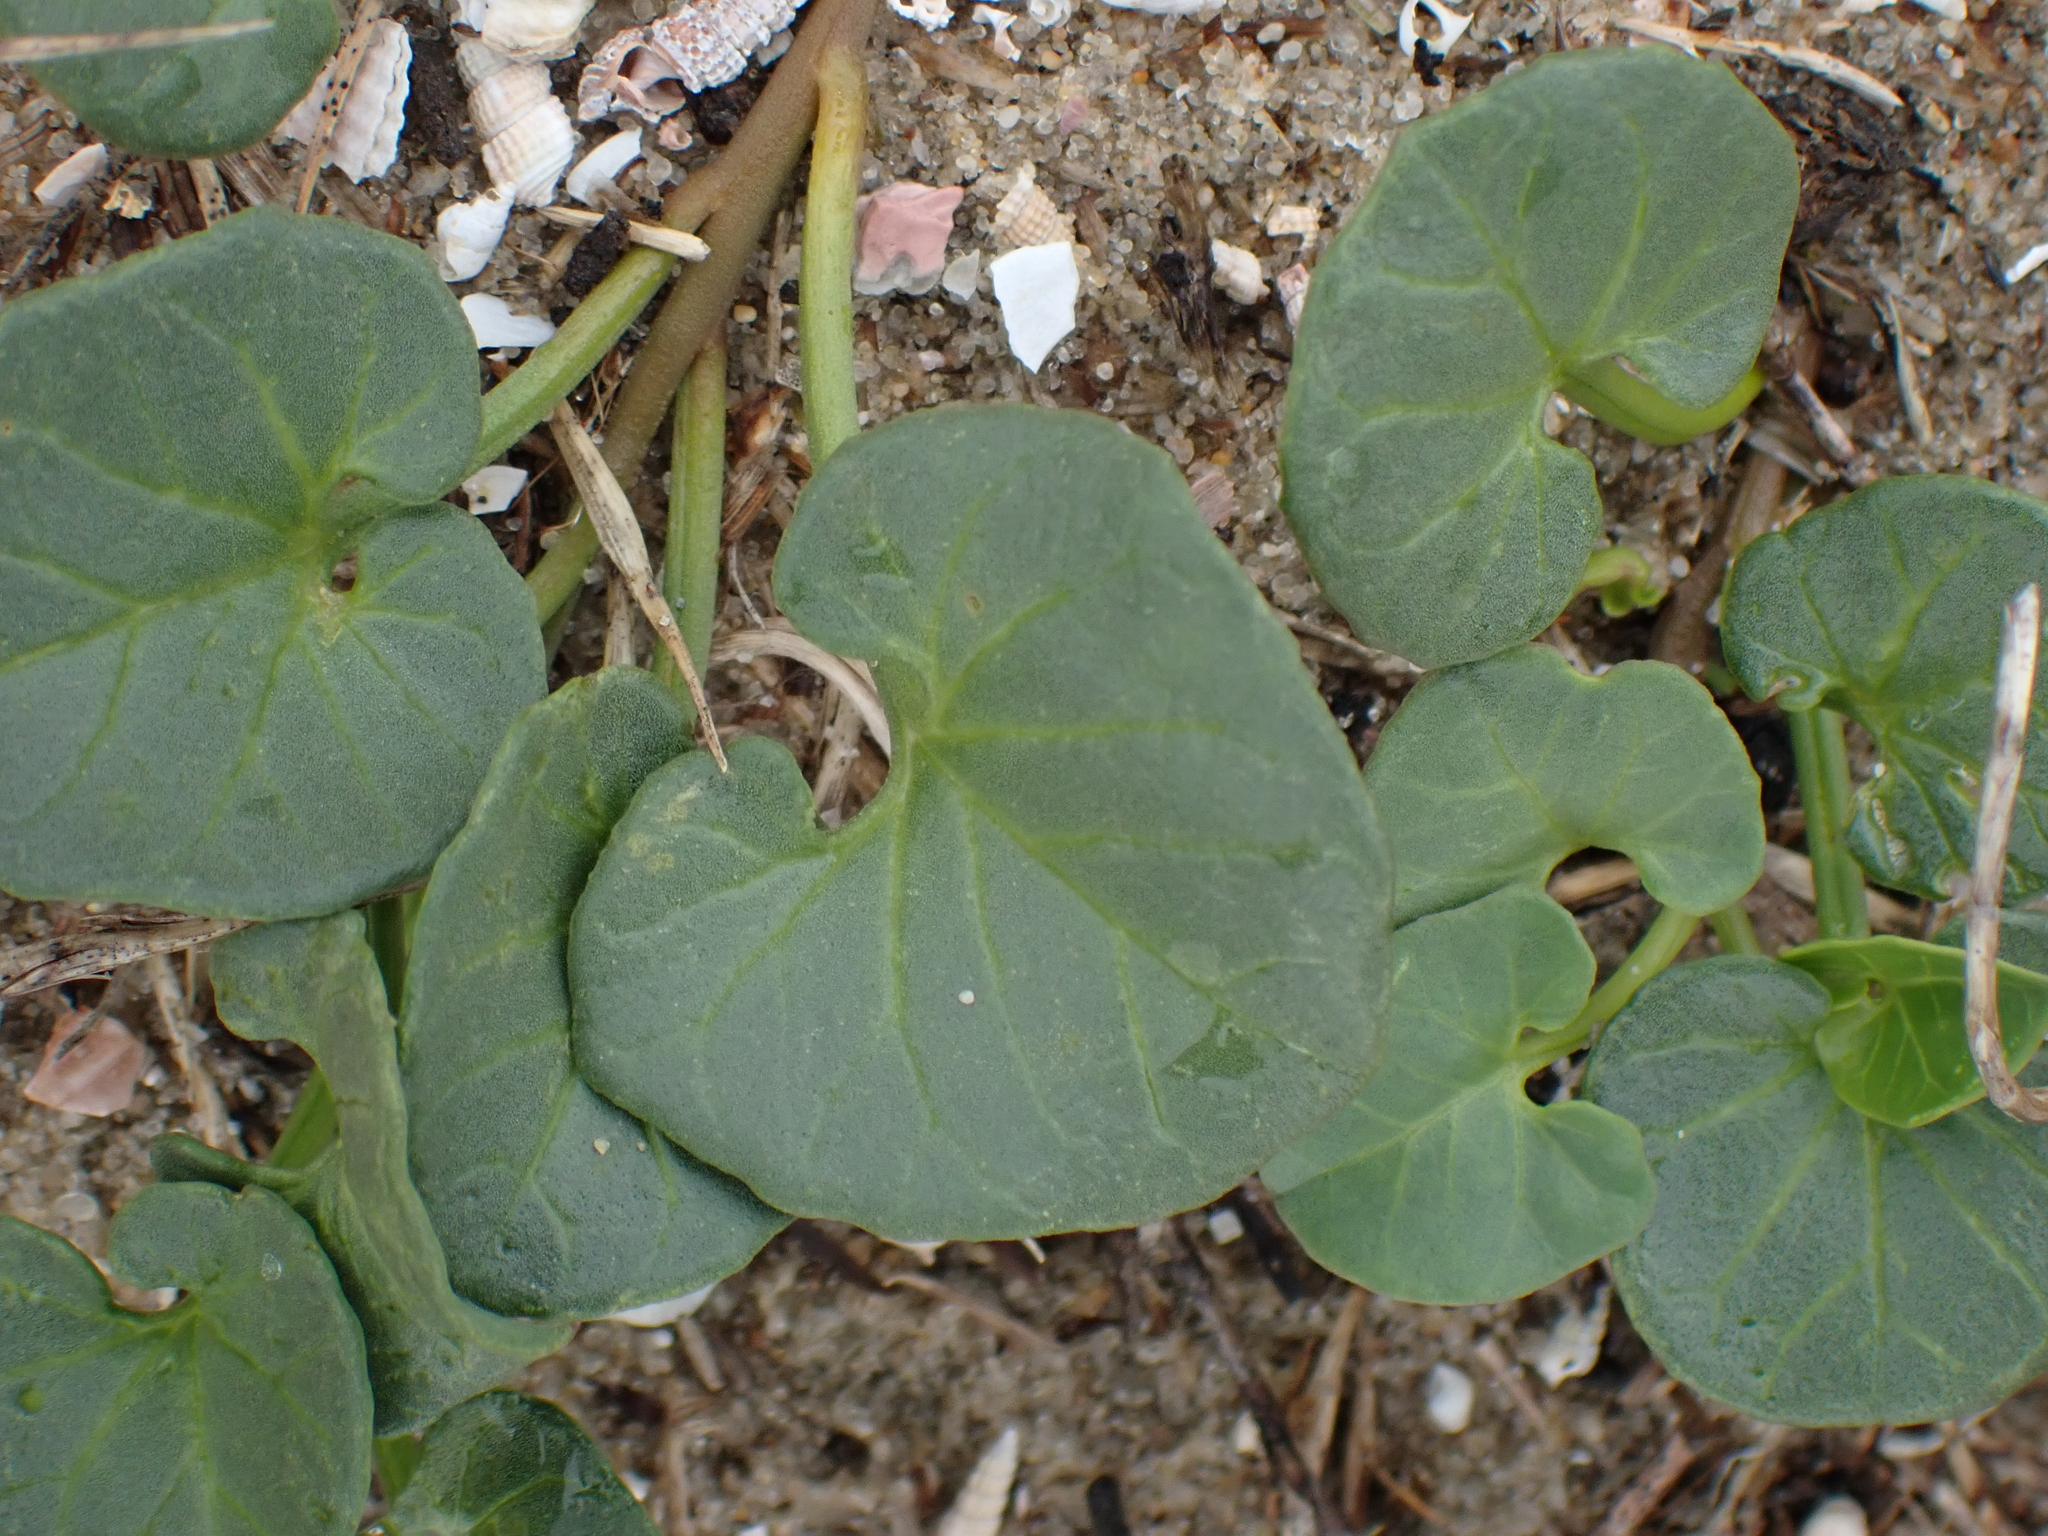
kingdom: Plantae
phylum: Tracheophyta
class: Magnoliopsida
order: Solanales
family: Convolvulaceae
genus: Calystegia
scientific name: Calystegia soldanella
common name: Sea bindweed
